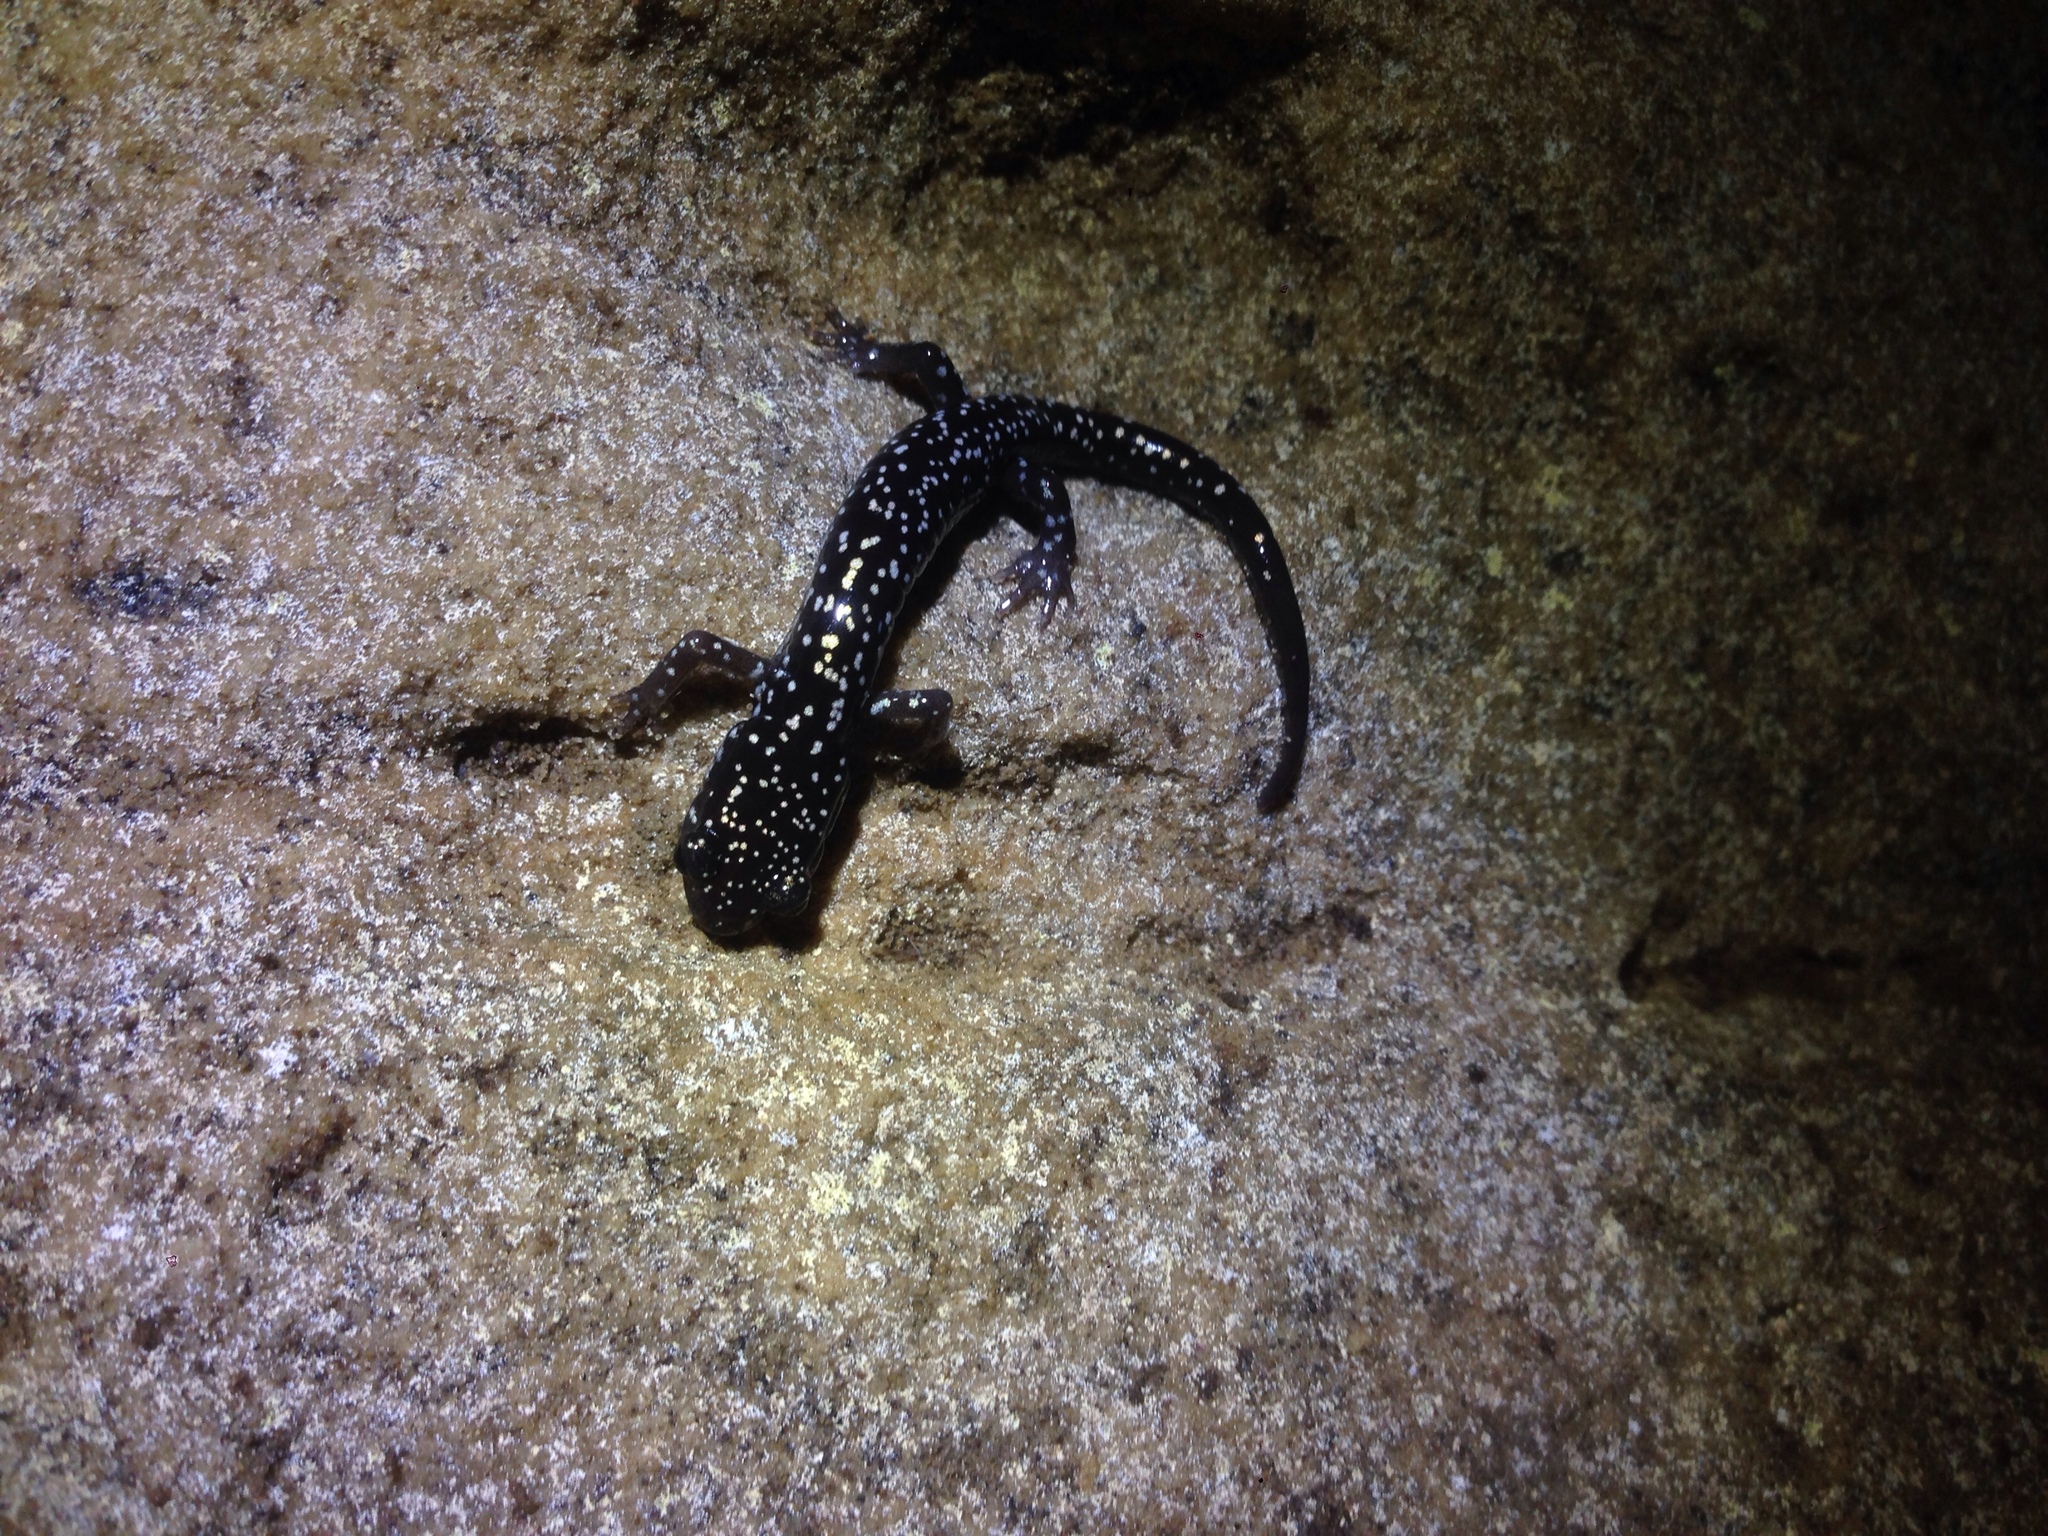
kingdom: Animalia
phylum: Chordata
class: Amphibia
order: Caudata
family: Plethodontidae
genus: Plethodon
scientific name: Plethodon glutinosus
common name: Northern slimy salamander
